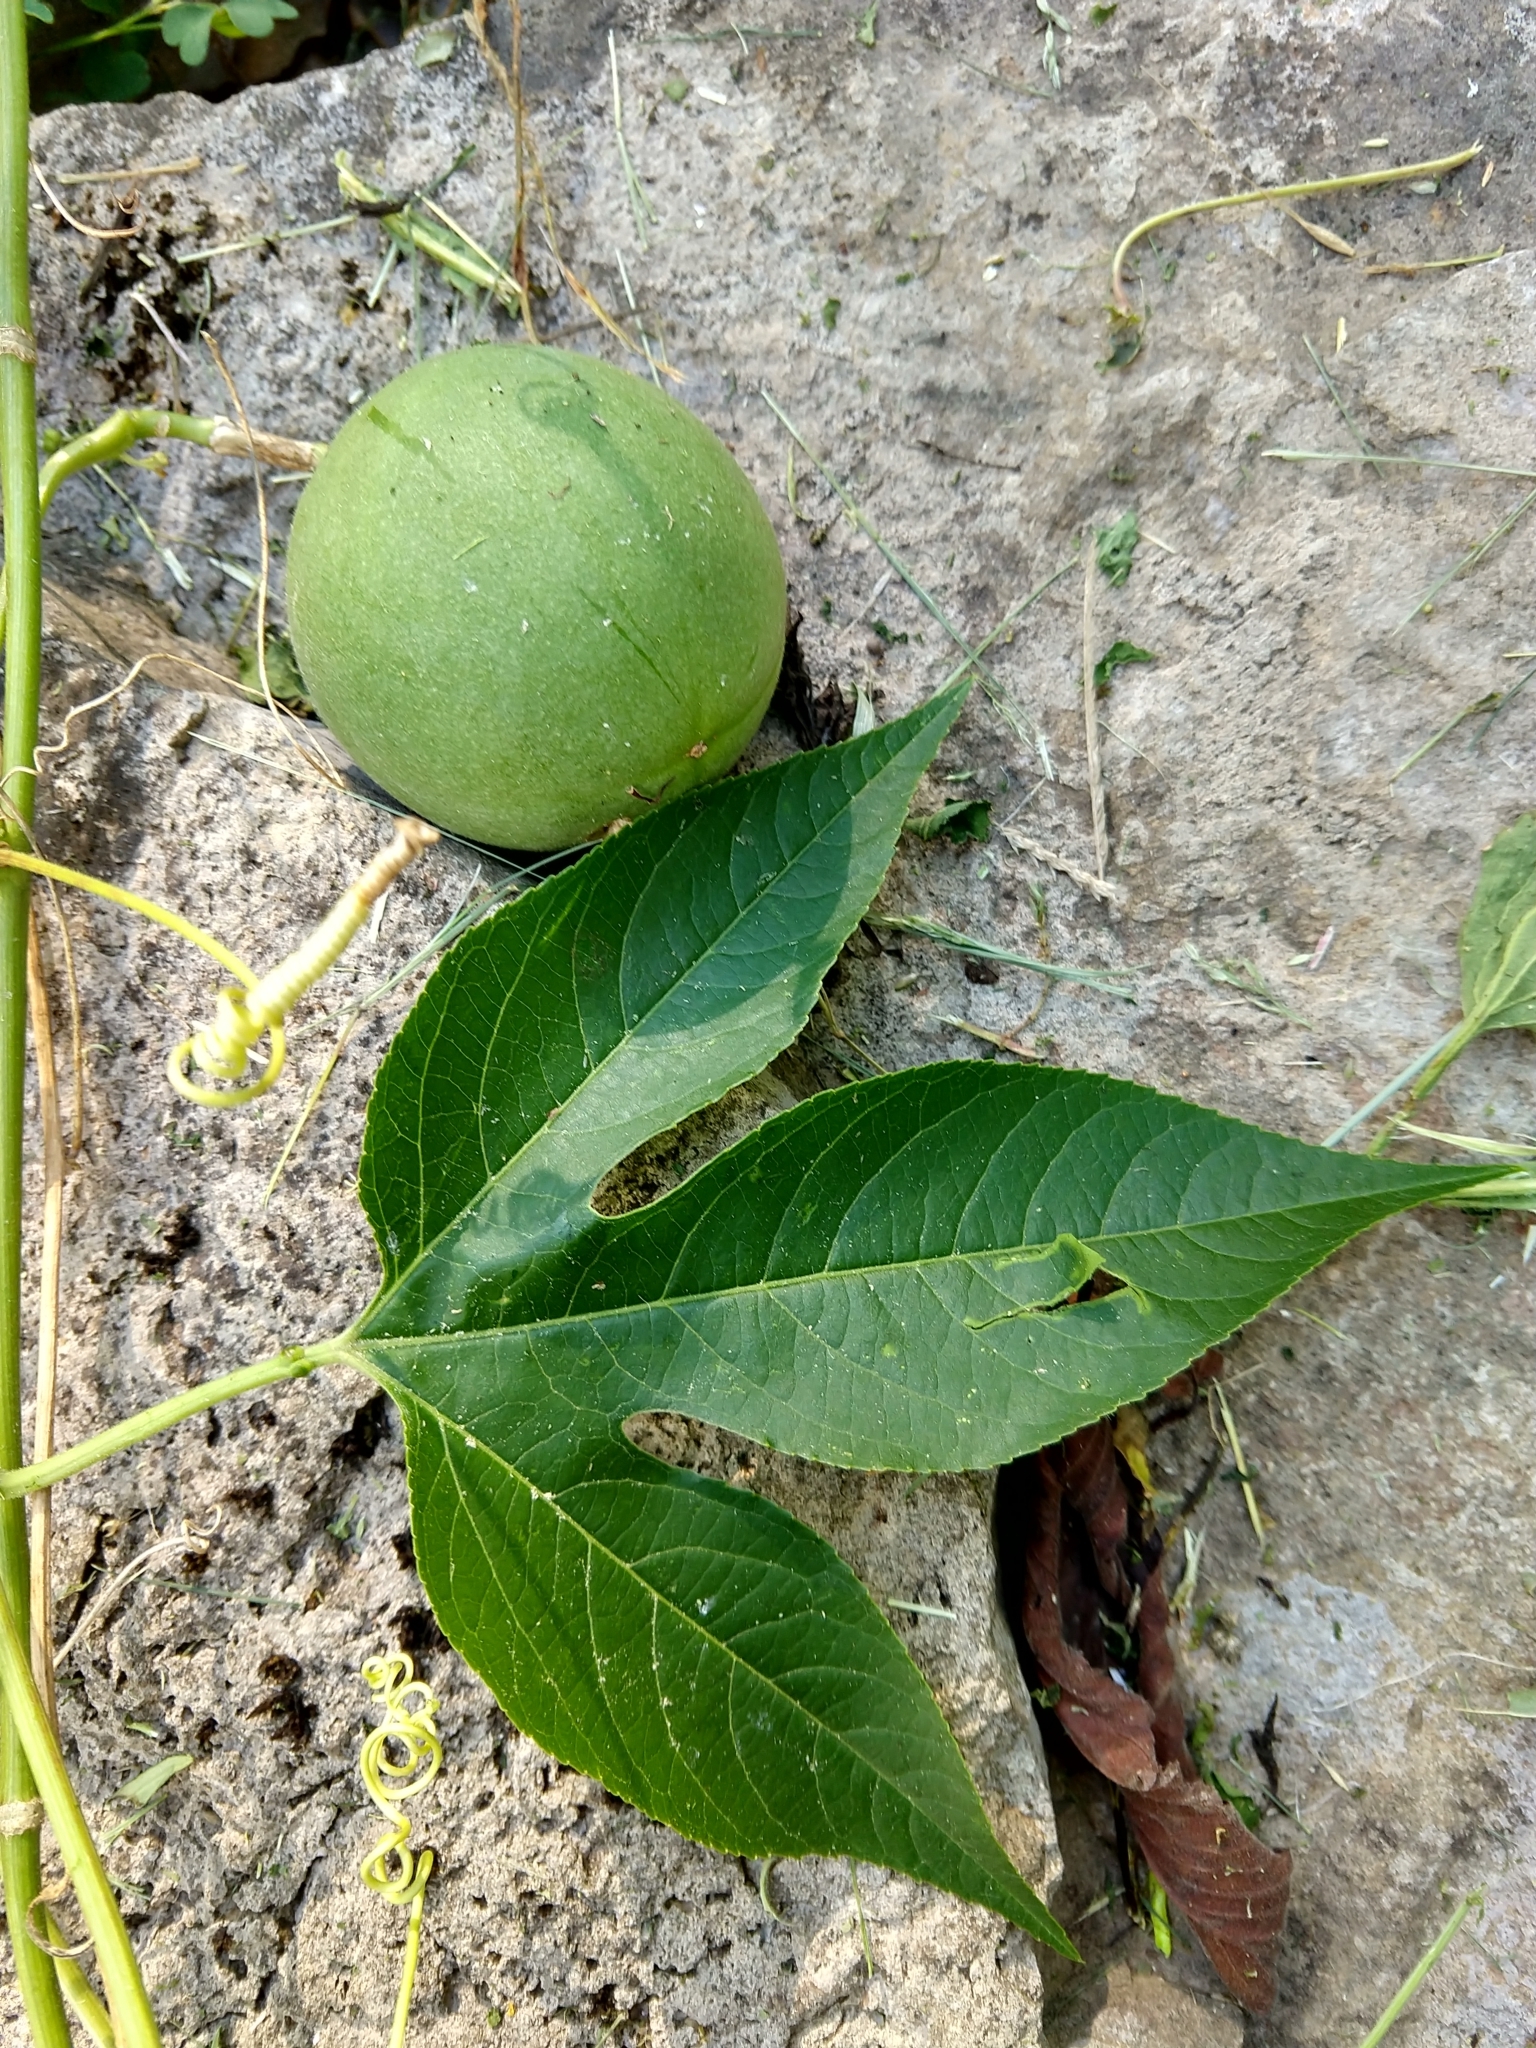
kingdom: Plantae
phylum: Tracheophyta
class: Magnoliopsida
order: Malpighiales
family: Passifloraceae
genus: Passiflora
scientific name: Passiflora incarnata
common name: Apricot-vine
